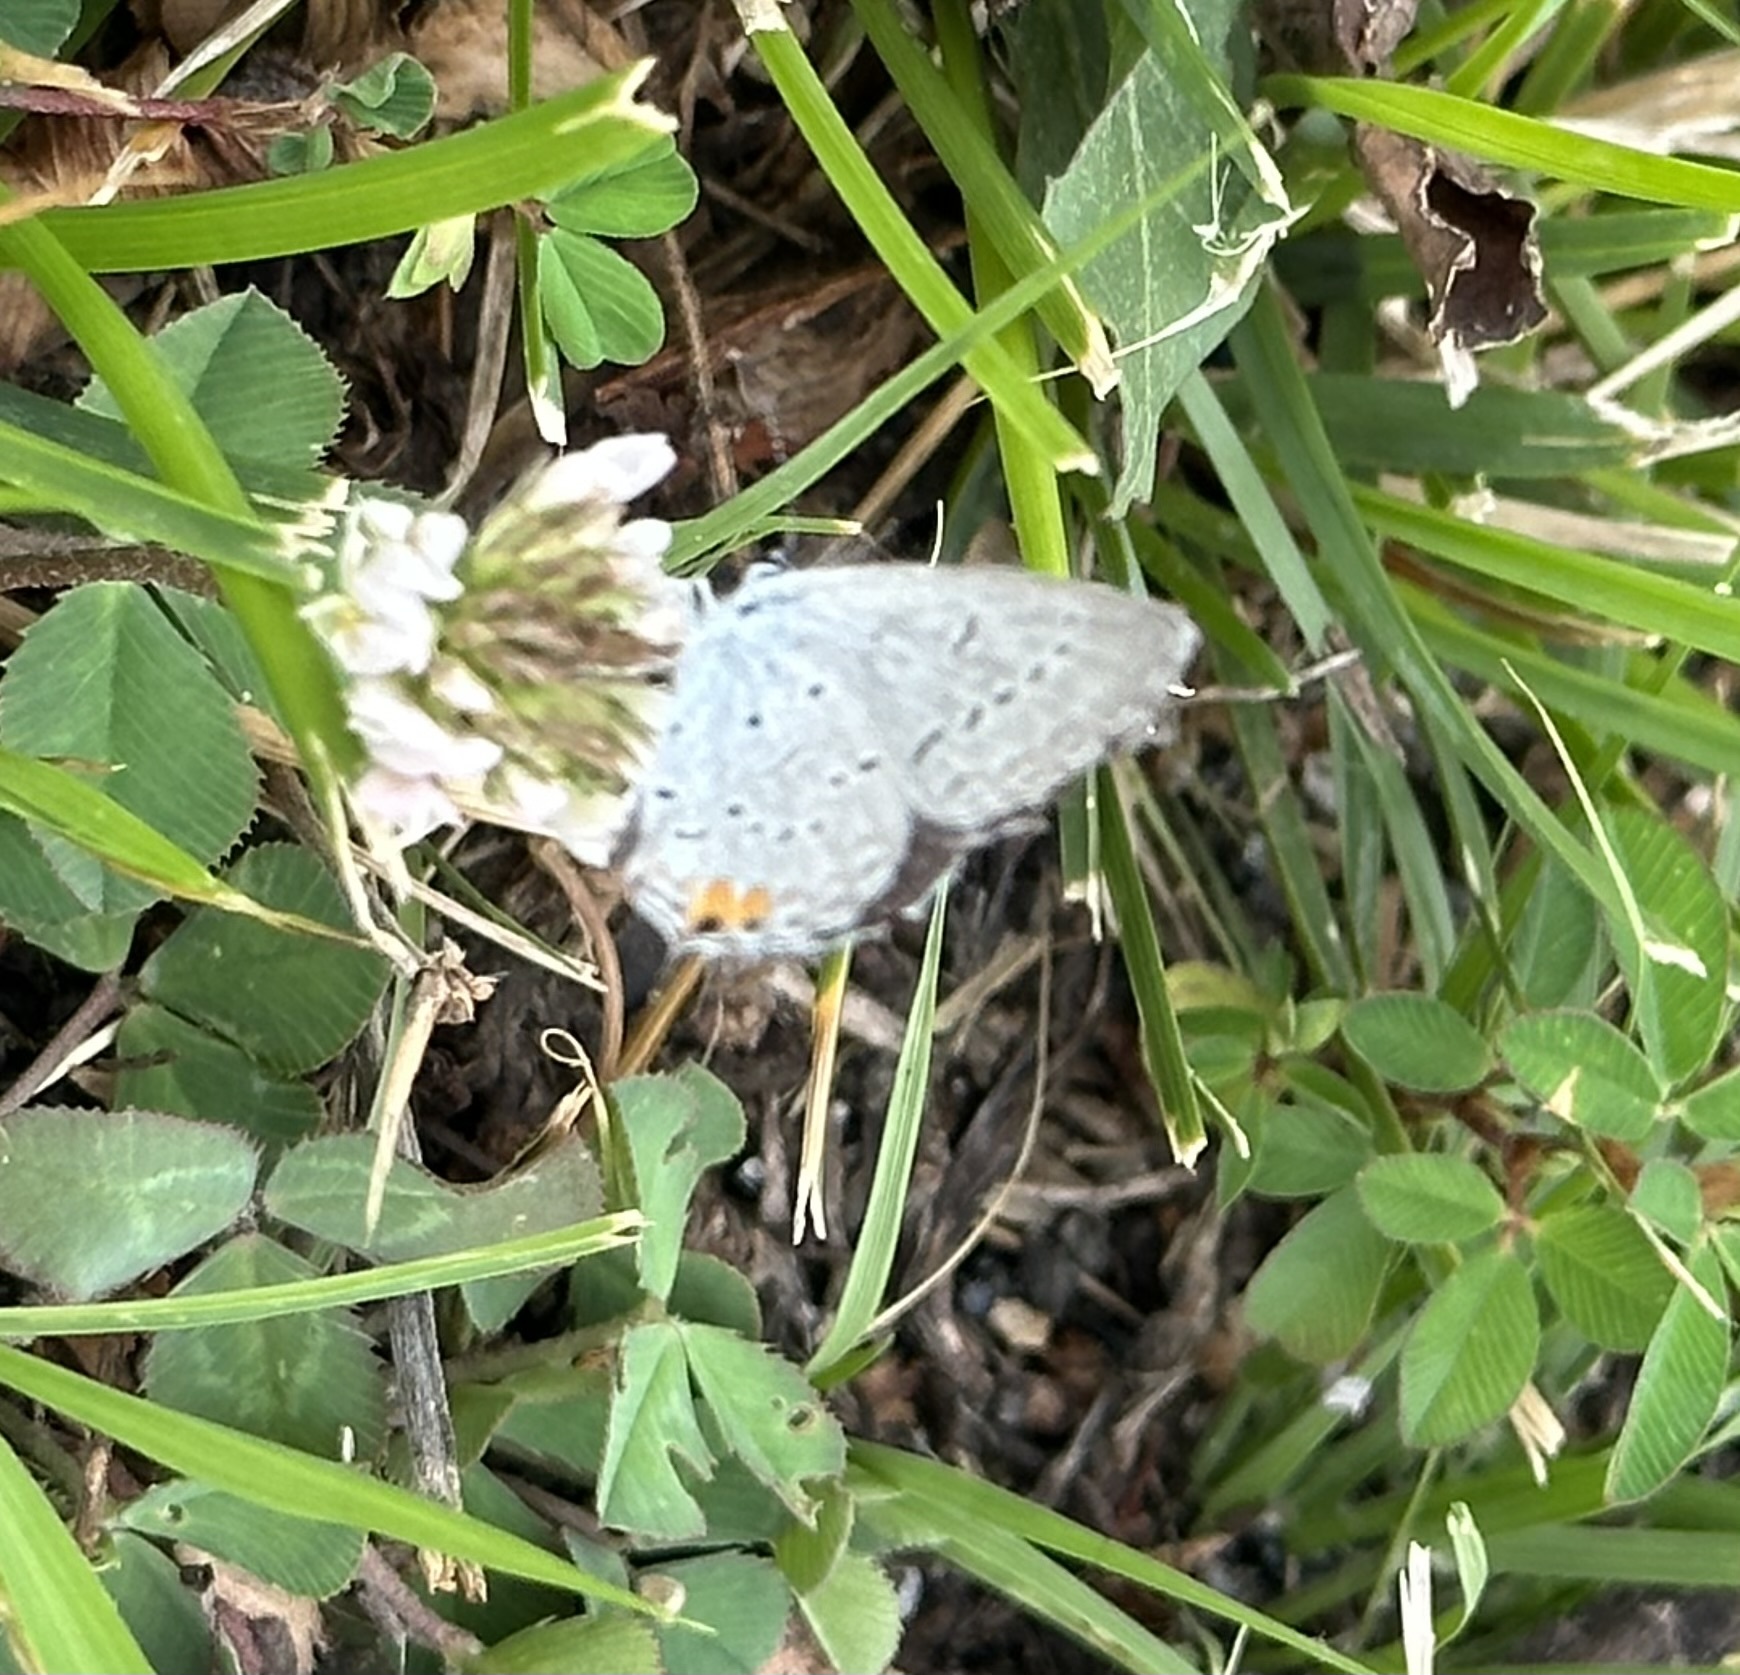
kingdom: Animalia
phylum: Arthropoda
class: Insecta
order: Lepidoptera
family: Lycaenidae
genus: Elkalyce
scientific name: Elkalyce comyntas
